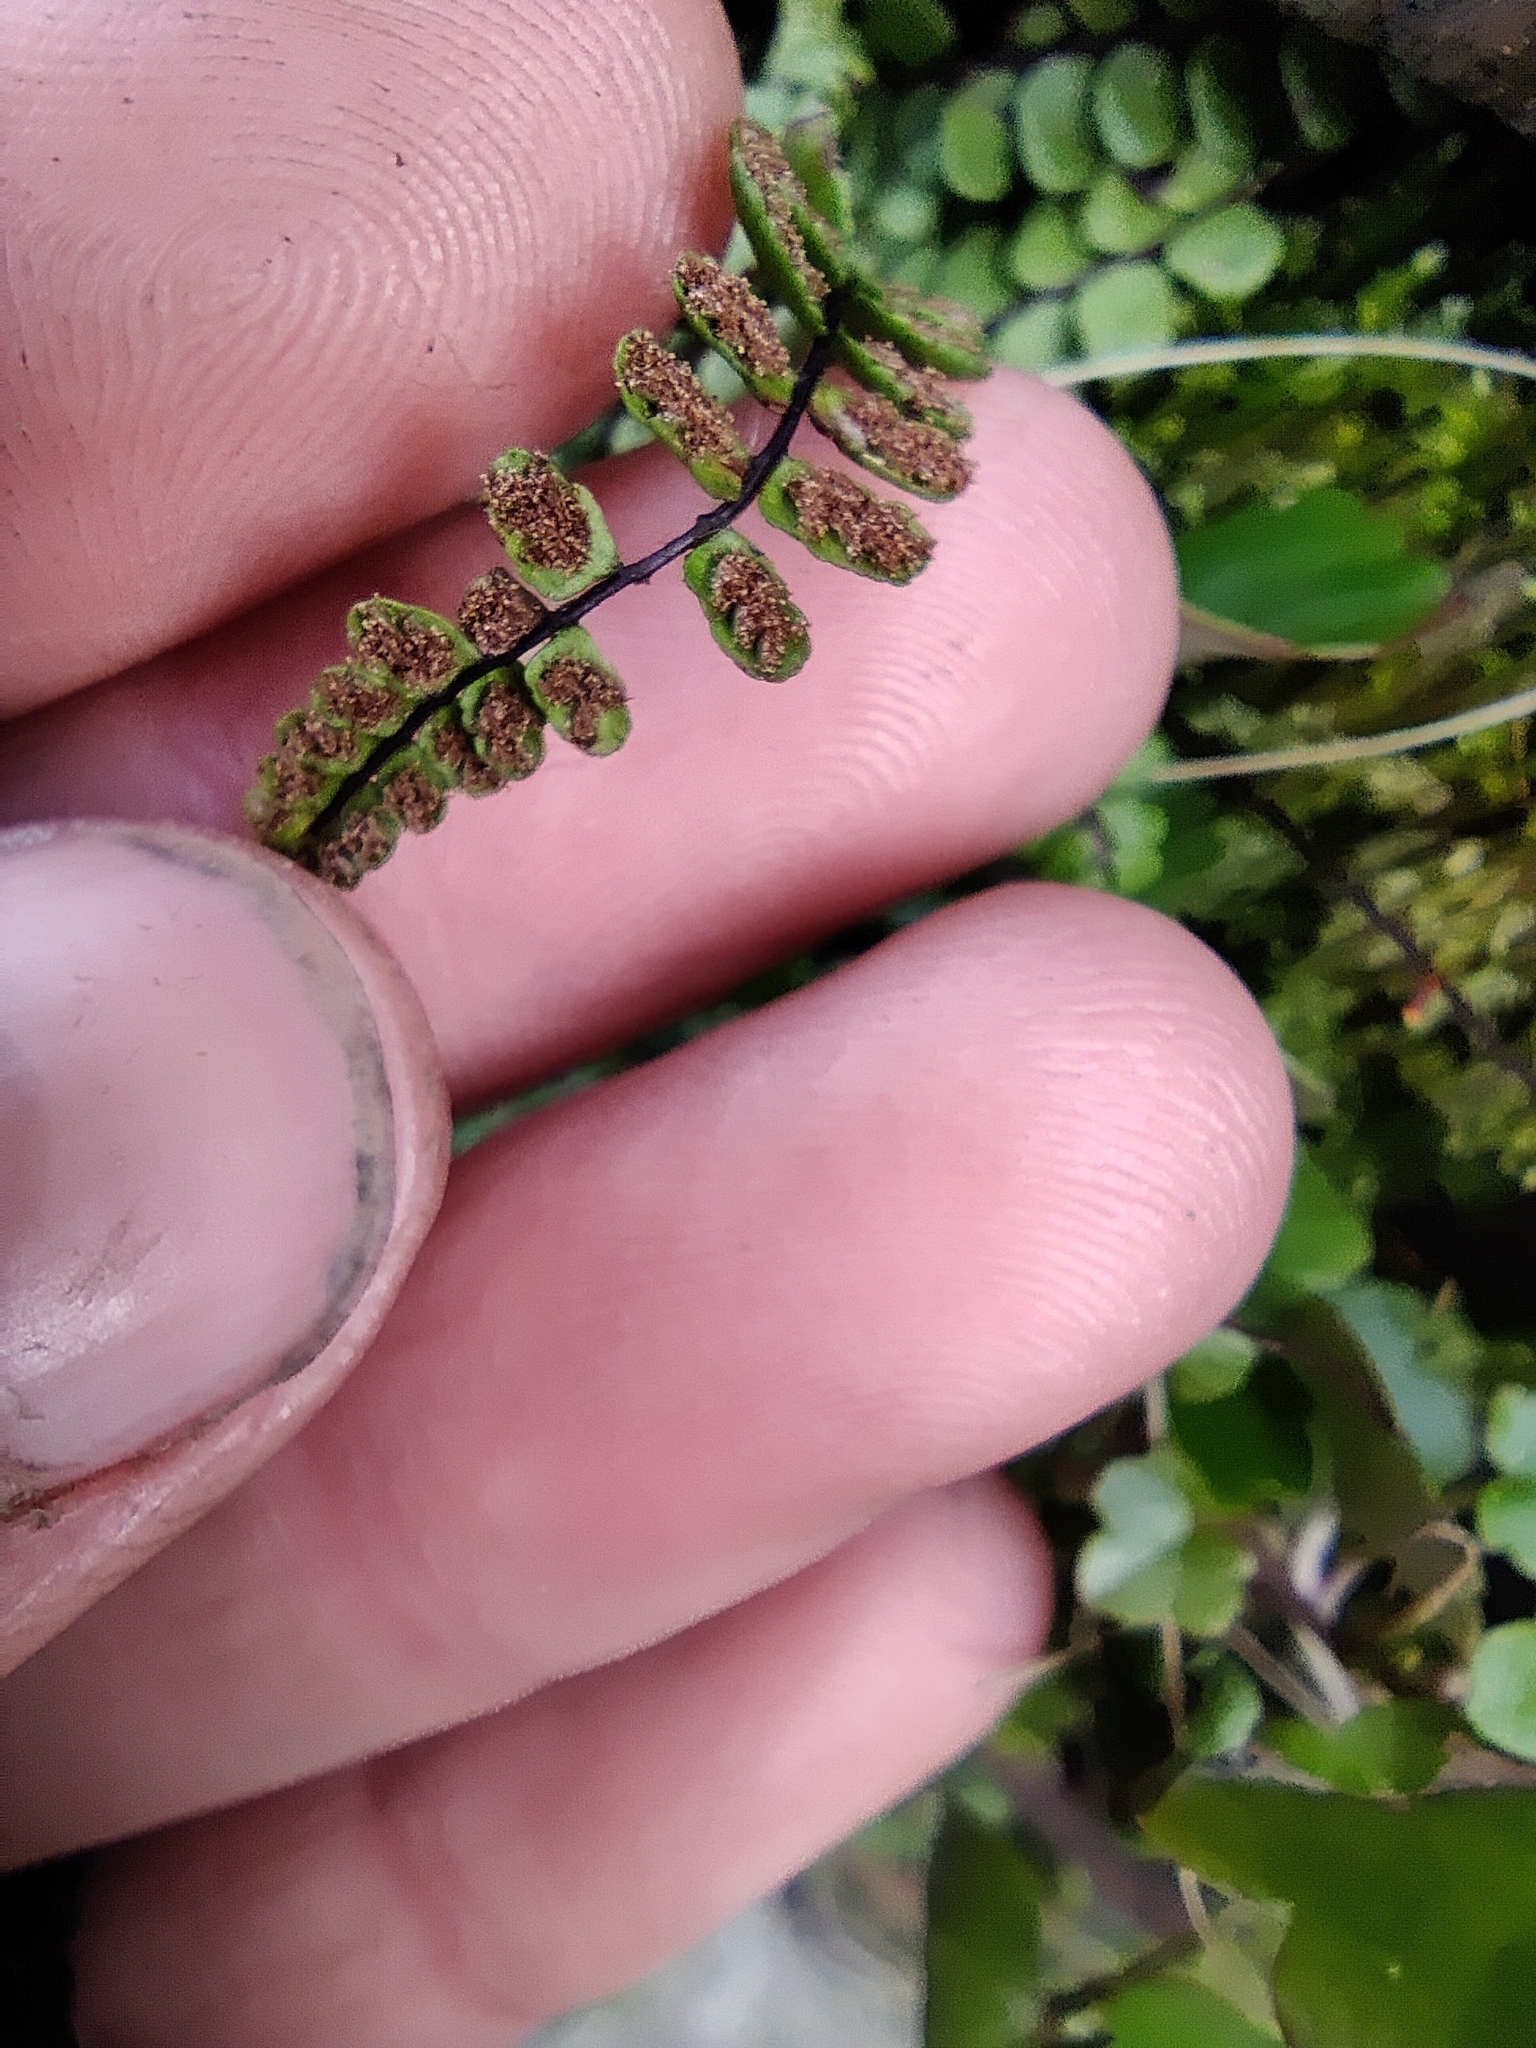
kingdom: Plantae
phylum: Tracheophyta
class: Polypodiopsida
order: Polypodiales
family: Aspleniaceae
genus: Asplenium
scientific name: Asplenium trichomanes
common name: Maidenhair spleenwort
